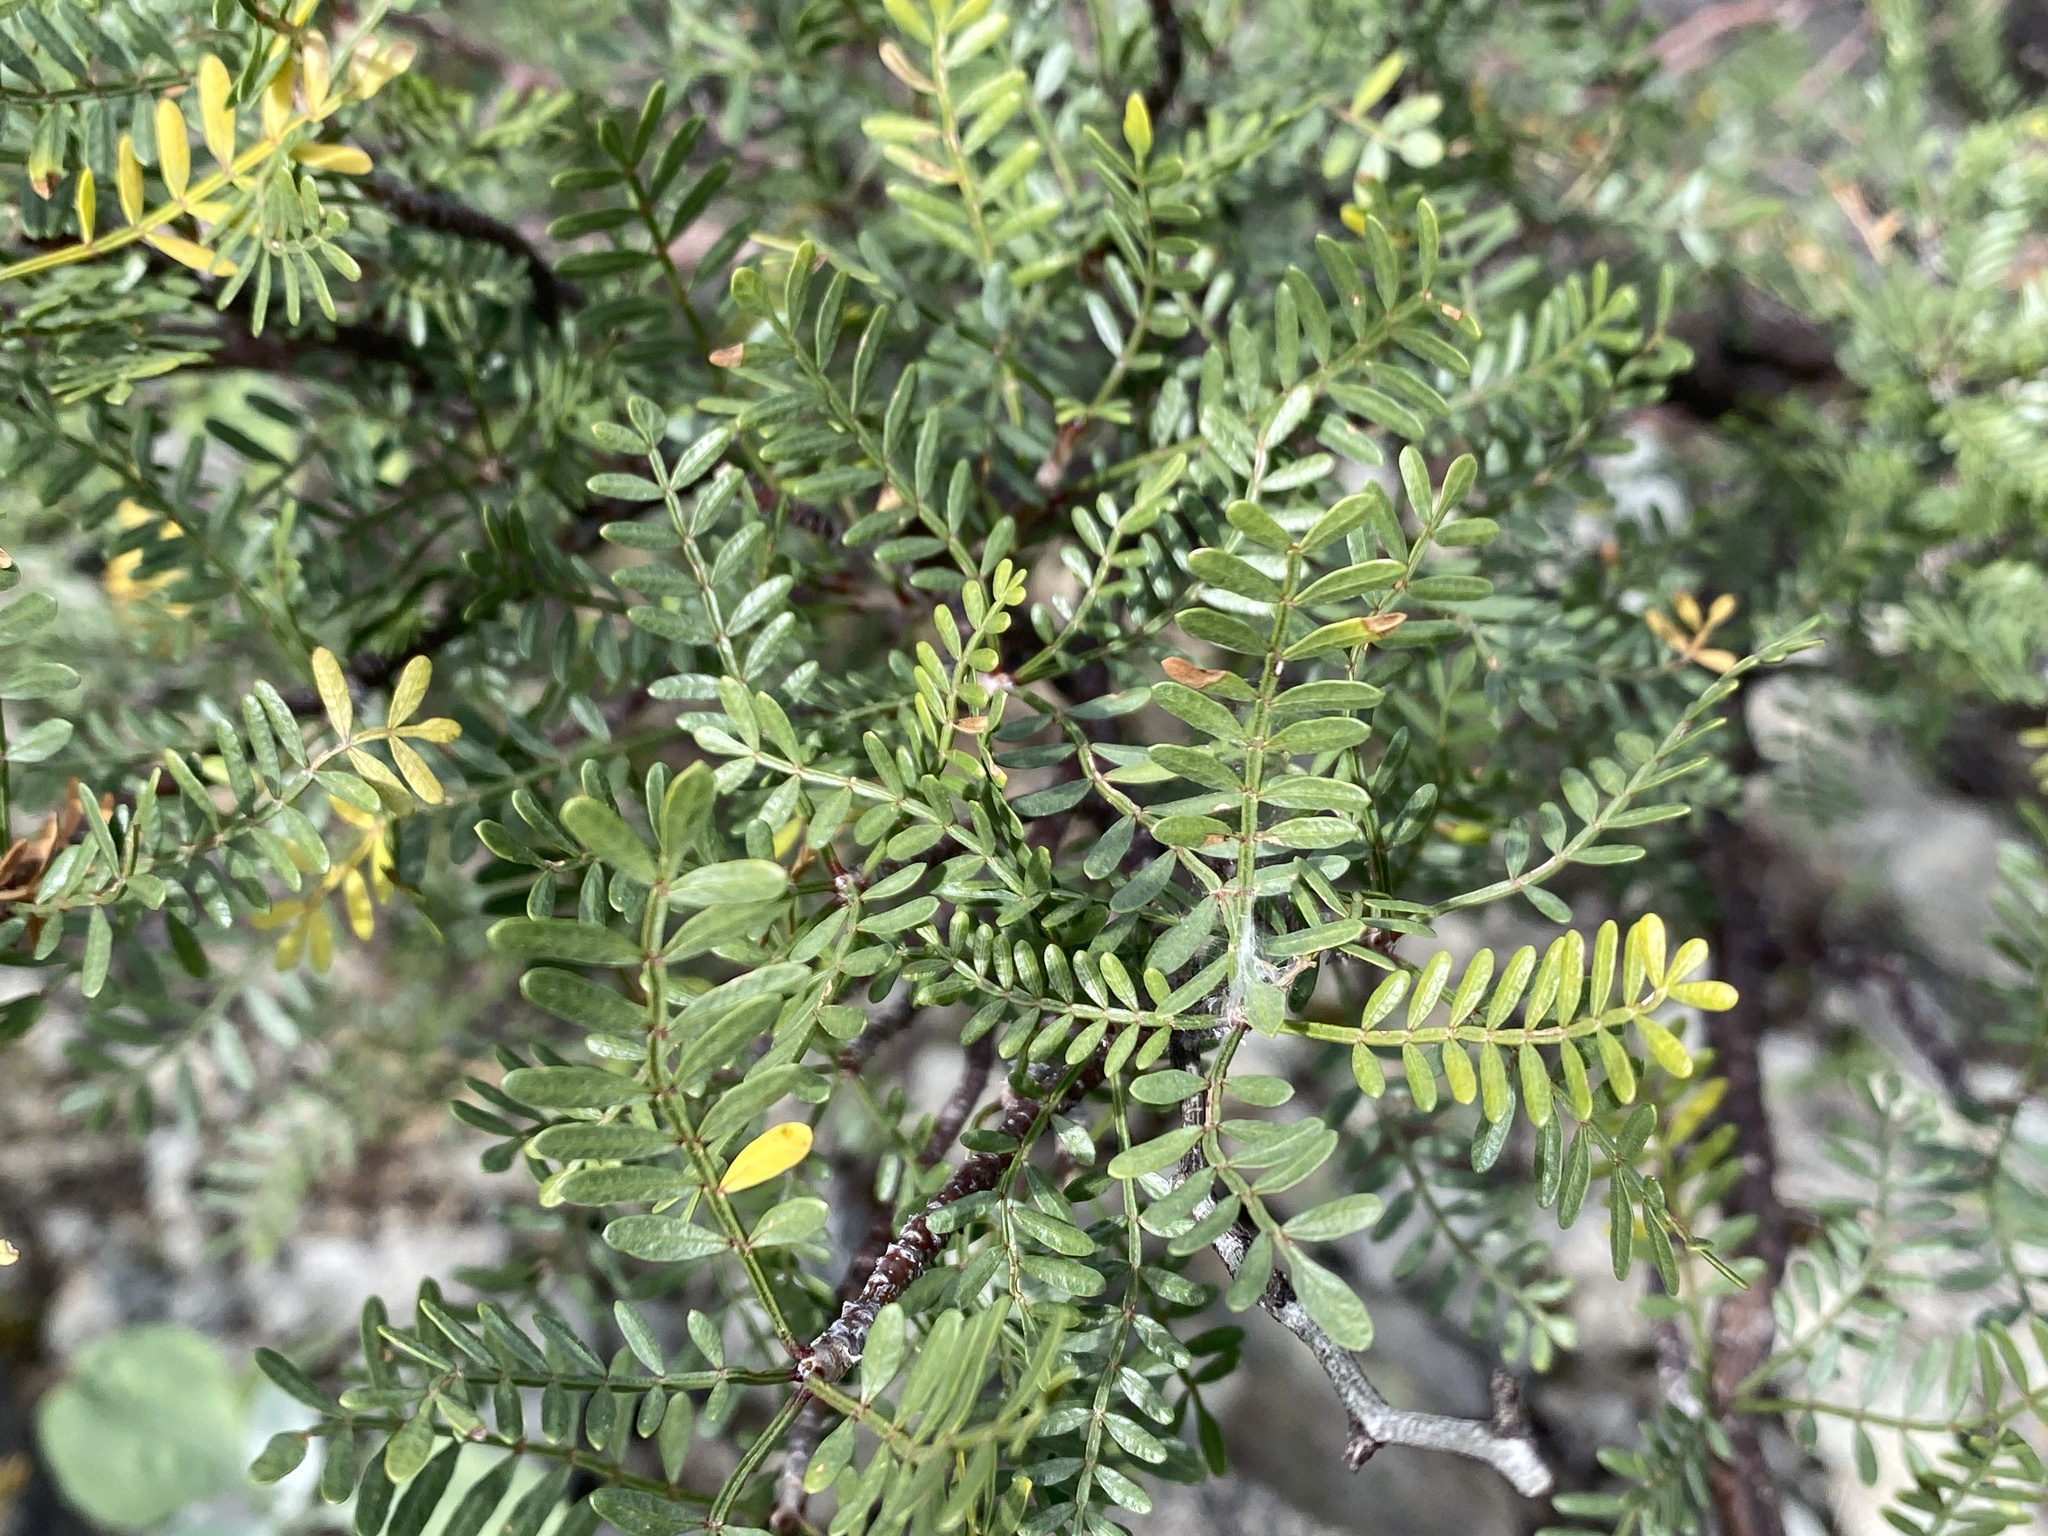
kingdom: Plantae
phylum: Tracheophyta
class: Magnoliopsida
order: Sapindales
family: Burseraceae
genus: Bursera
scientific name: Bursera microphylla
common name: Elephant tree
